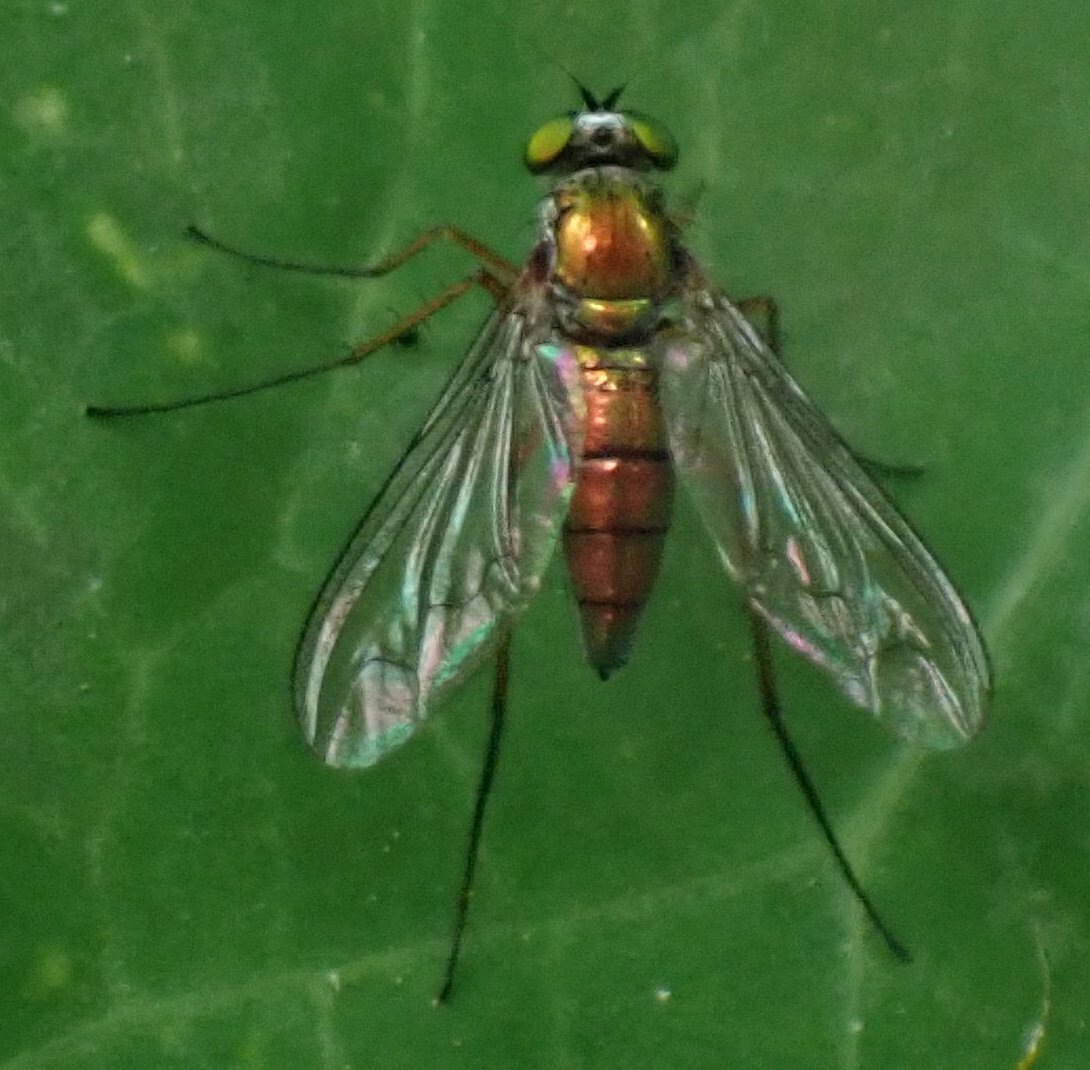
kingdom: Animalia
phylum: Arthropoda
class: Insecta
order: Diptera
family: Dolichopodidae
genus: Heteropsilopus
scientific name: Heteropsilopus cingulipes
